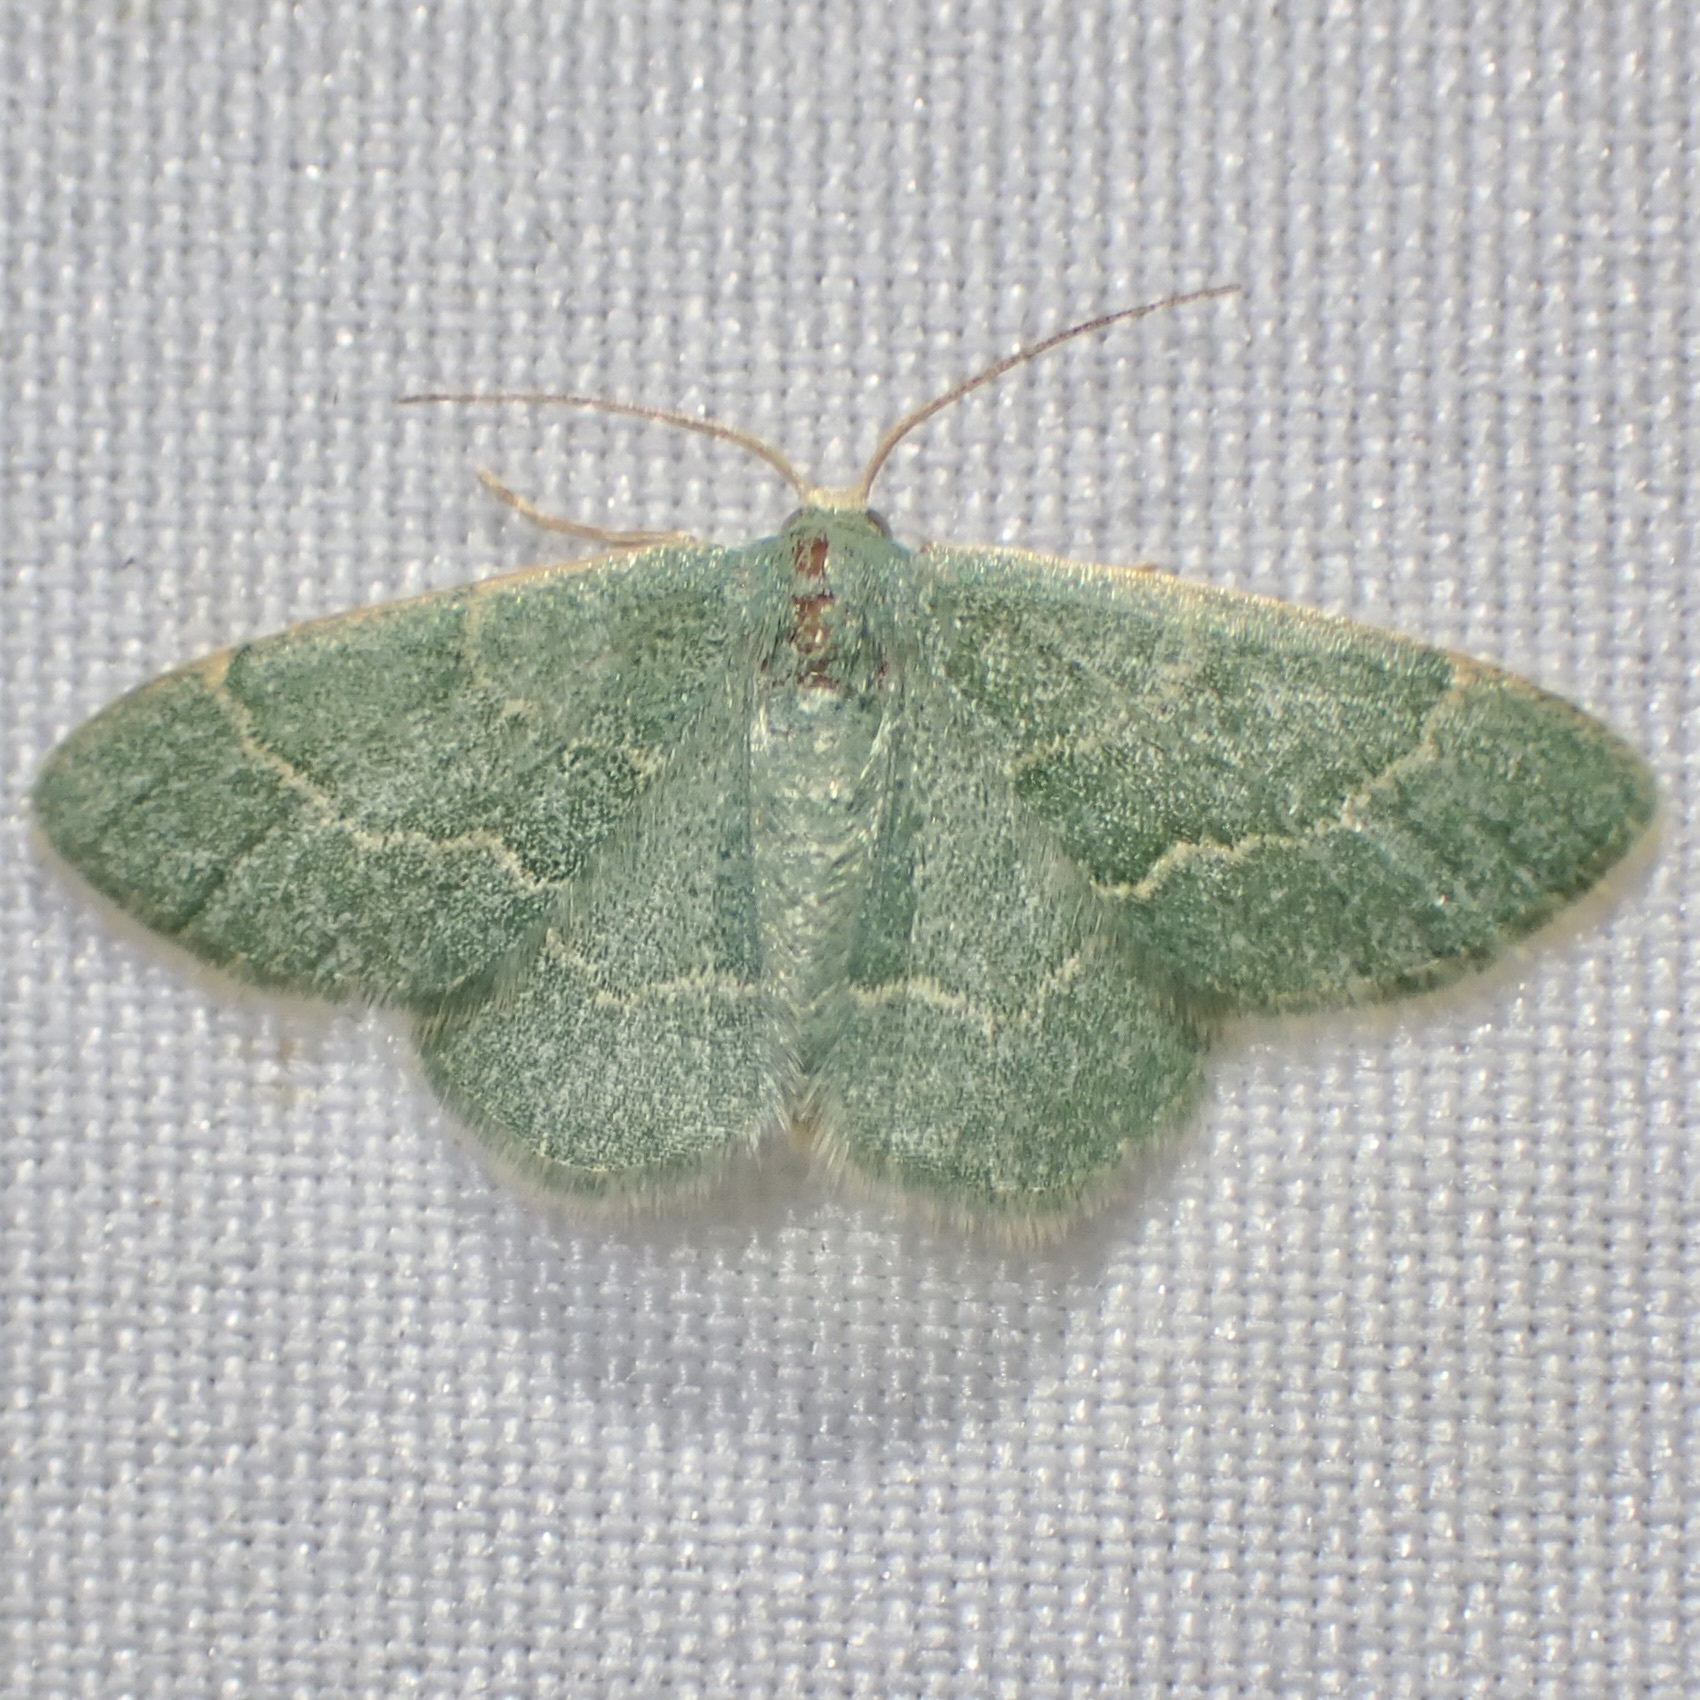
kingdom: Animalia
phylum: Arthropoda
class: Insecta
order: Lepidoptera
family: Geometridae
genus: Chlorochlamys
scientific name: Chlorochlamys phyllinaria
